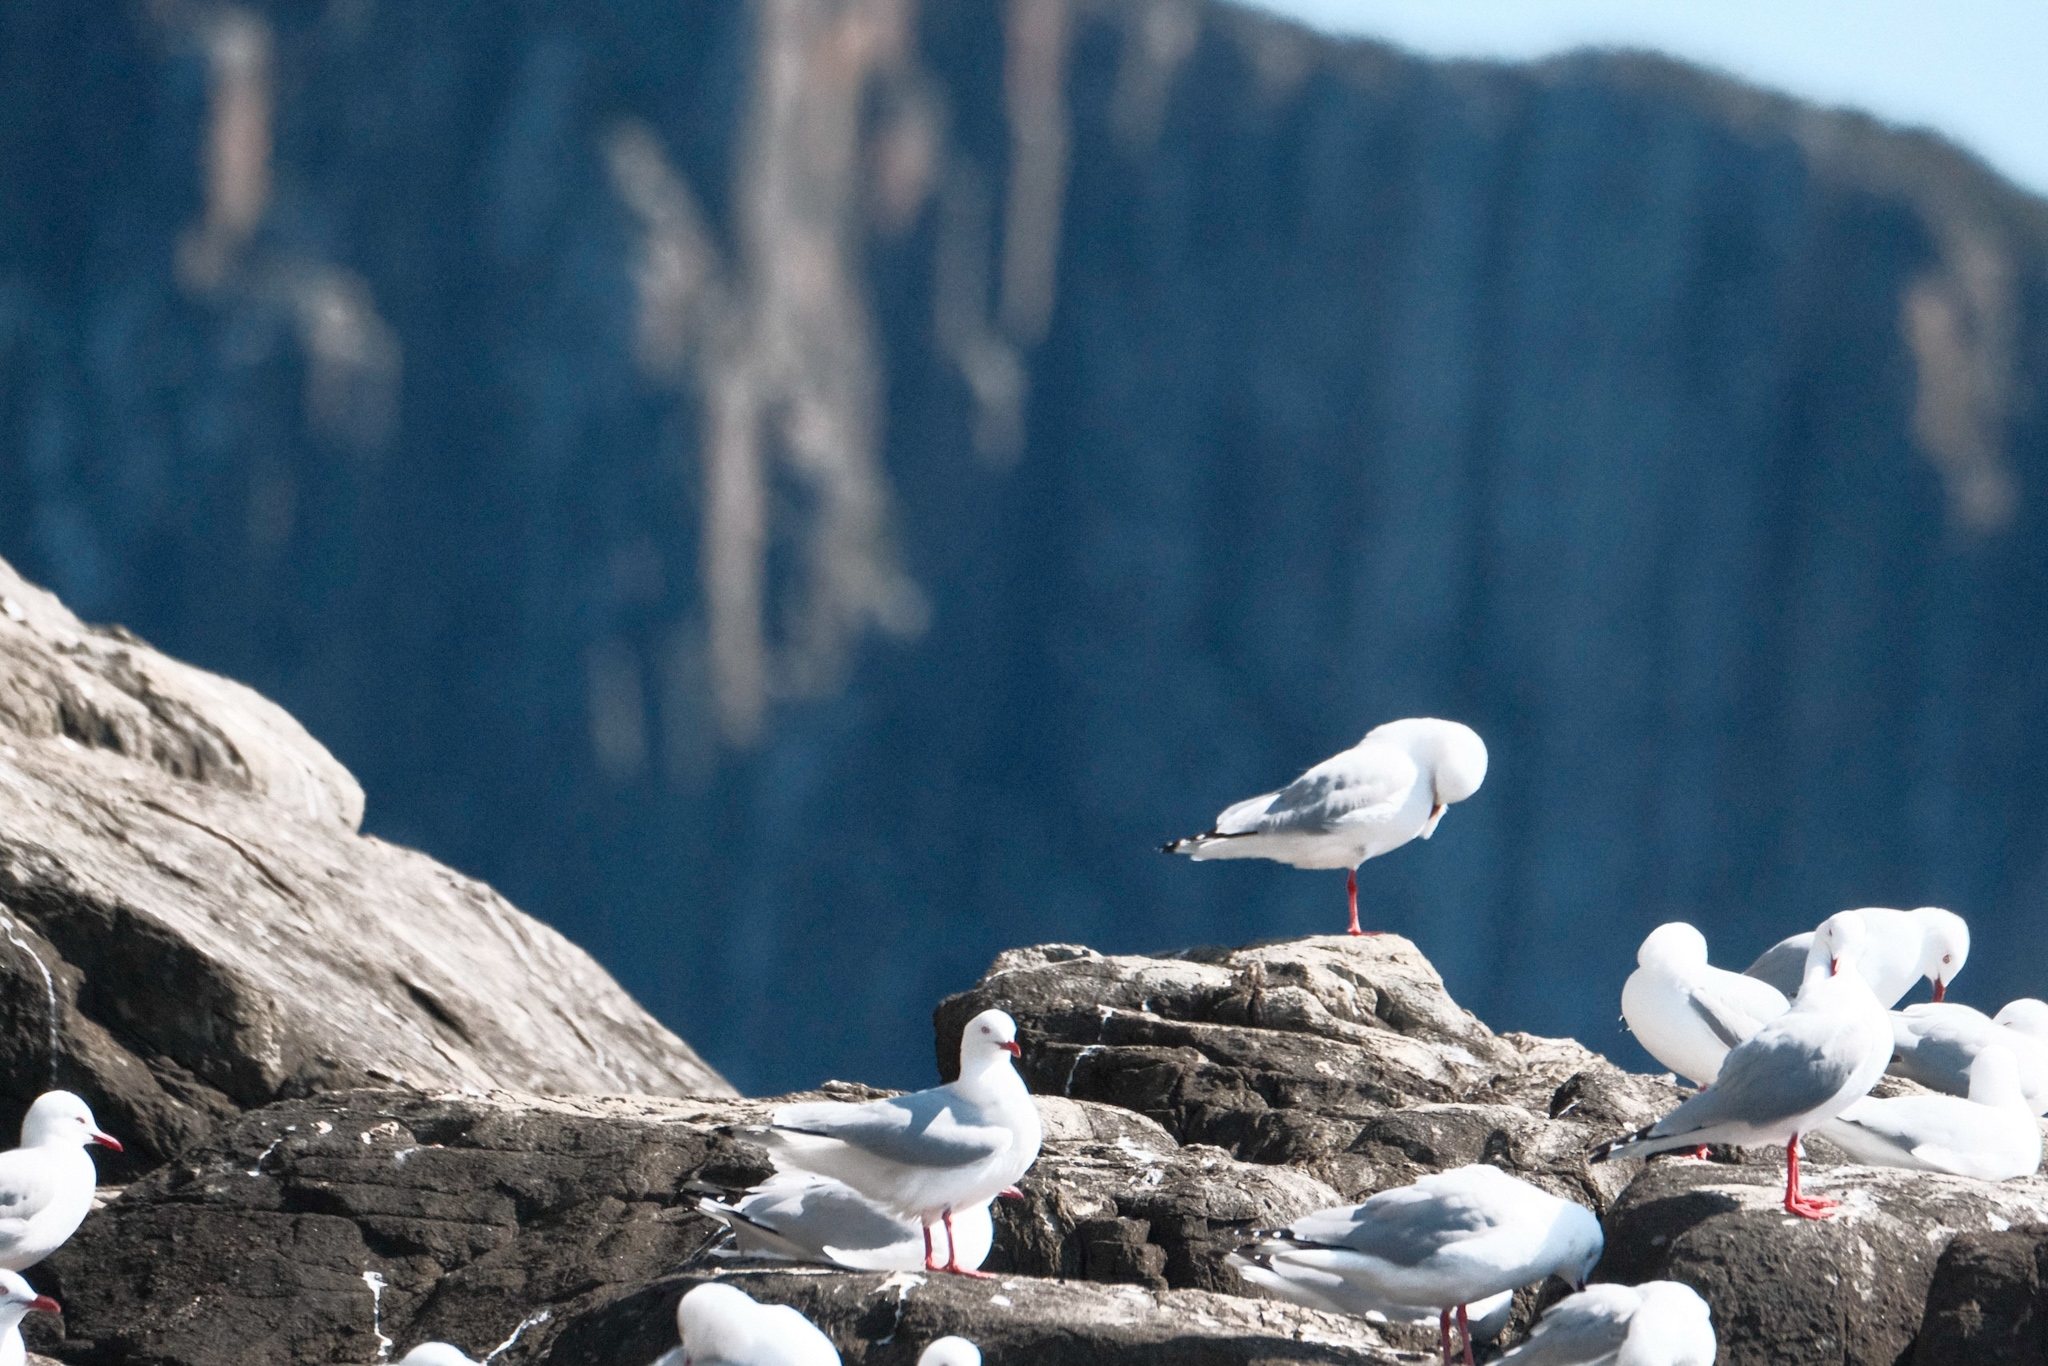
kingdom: Animalia
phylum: Chordata
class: Aves
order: Charadriiformes
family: Laridae
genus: Chroicocephalus
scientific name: Chroicocephalus novaehollandiae
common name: Silver gull
